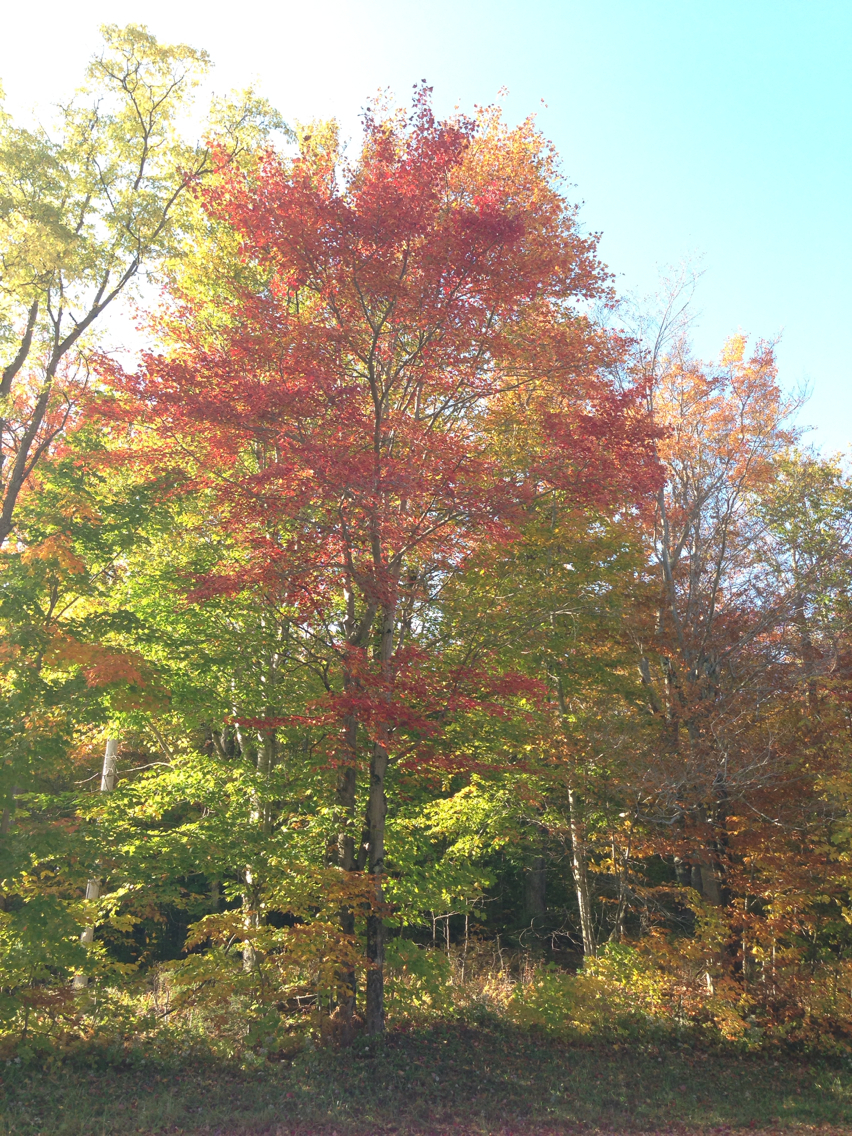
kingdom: Plantae
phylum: Tracheophyta
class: Magnoliopsida
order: Sapindales
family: Sapindaceae
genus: Acer
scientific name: Acer rubrum
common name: Red maple
